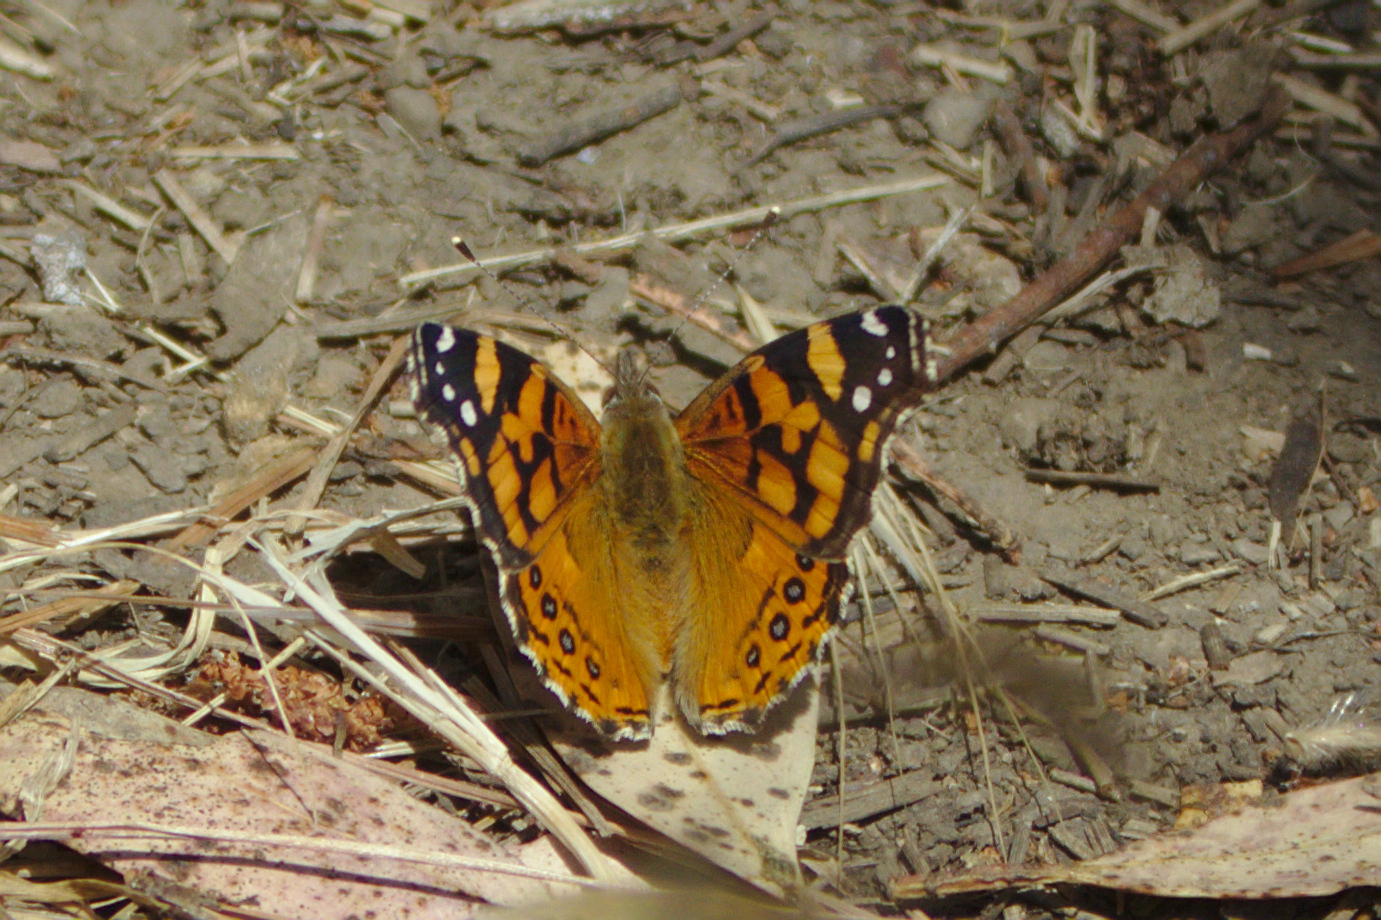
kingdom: Animalia
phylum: Arthropoda
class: Insecta
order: Lepidoptera
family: Nymphalidae
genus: Vanessa
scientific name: Vanessa annabella
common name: West coast lady
